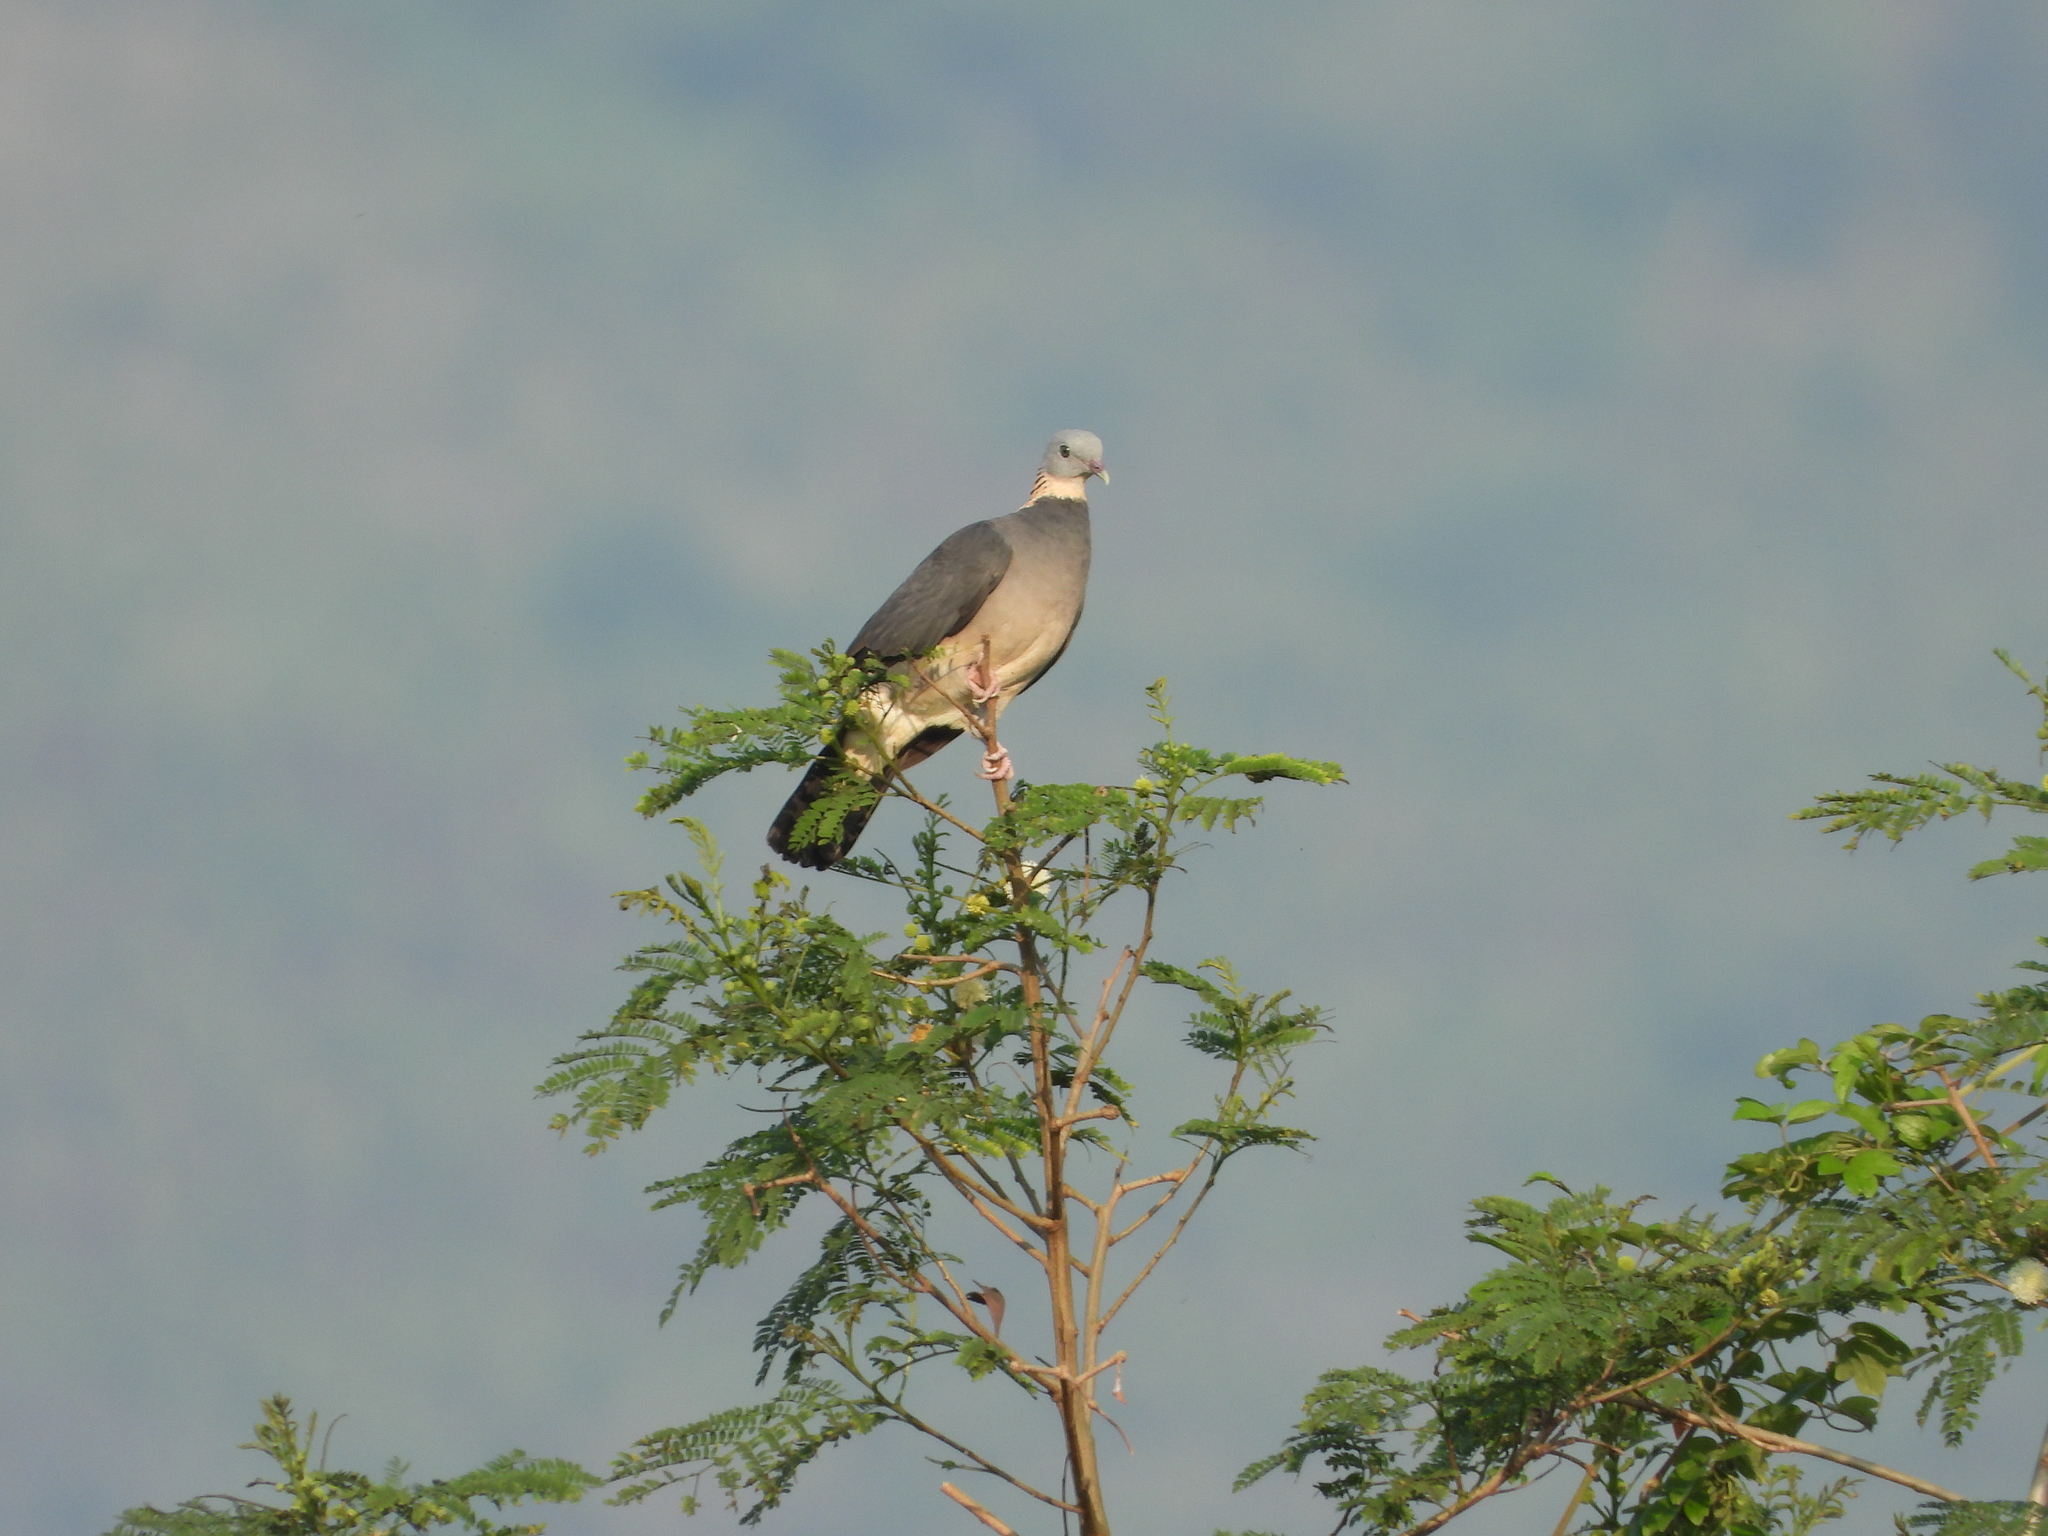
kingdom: Animalia
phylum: Chordata
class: Aves
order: Columbiformes
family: Columbidae
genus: Columba
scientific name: Columba pulchricollis
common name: Ashy wood pigeon
